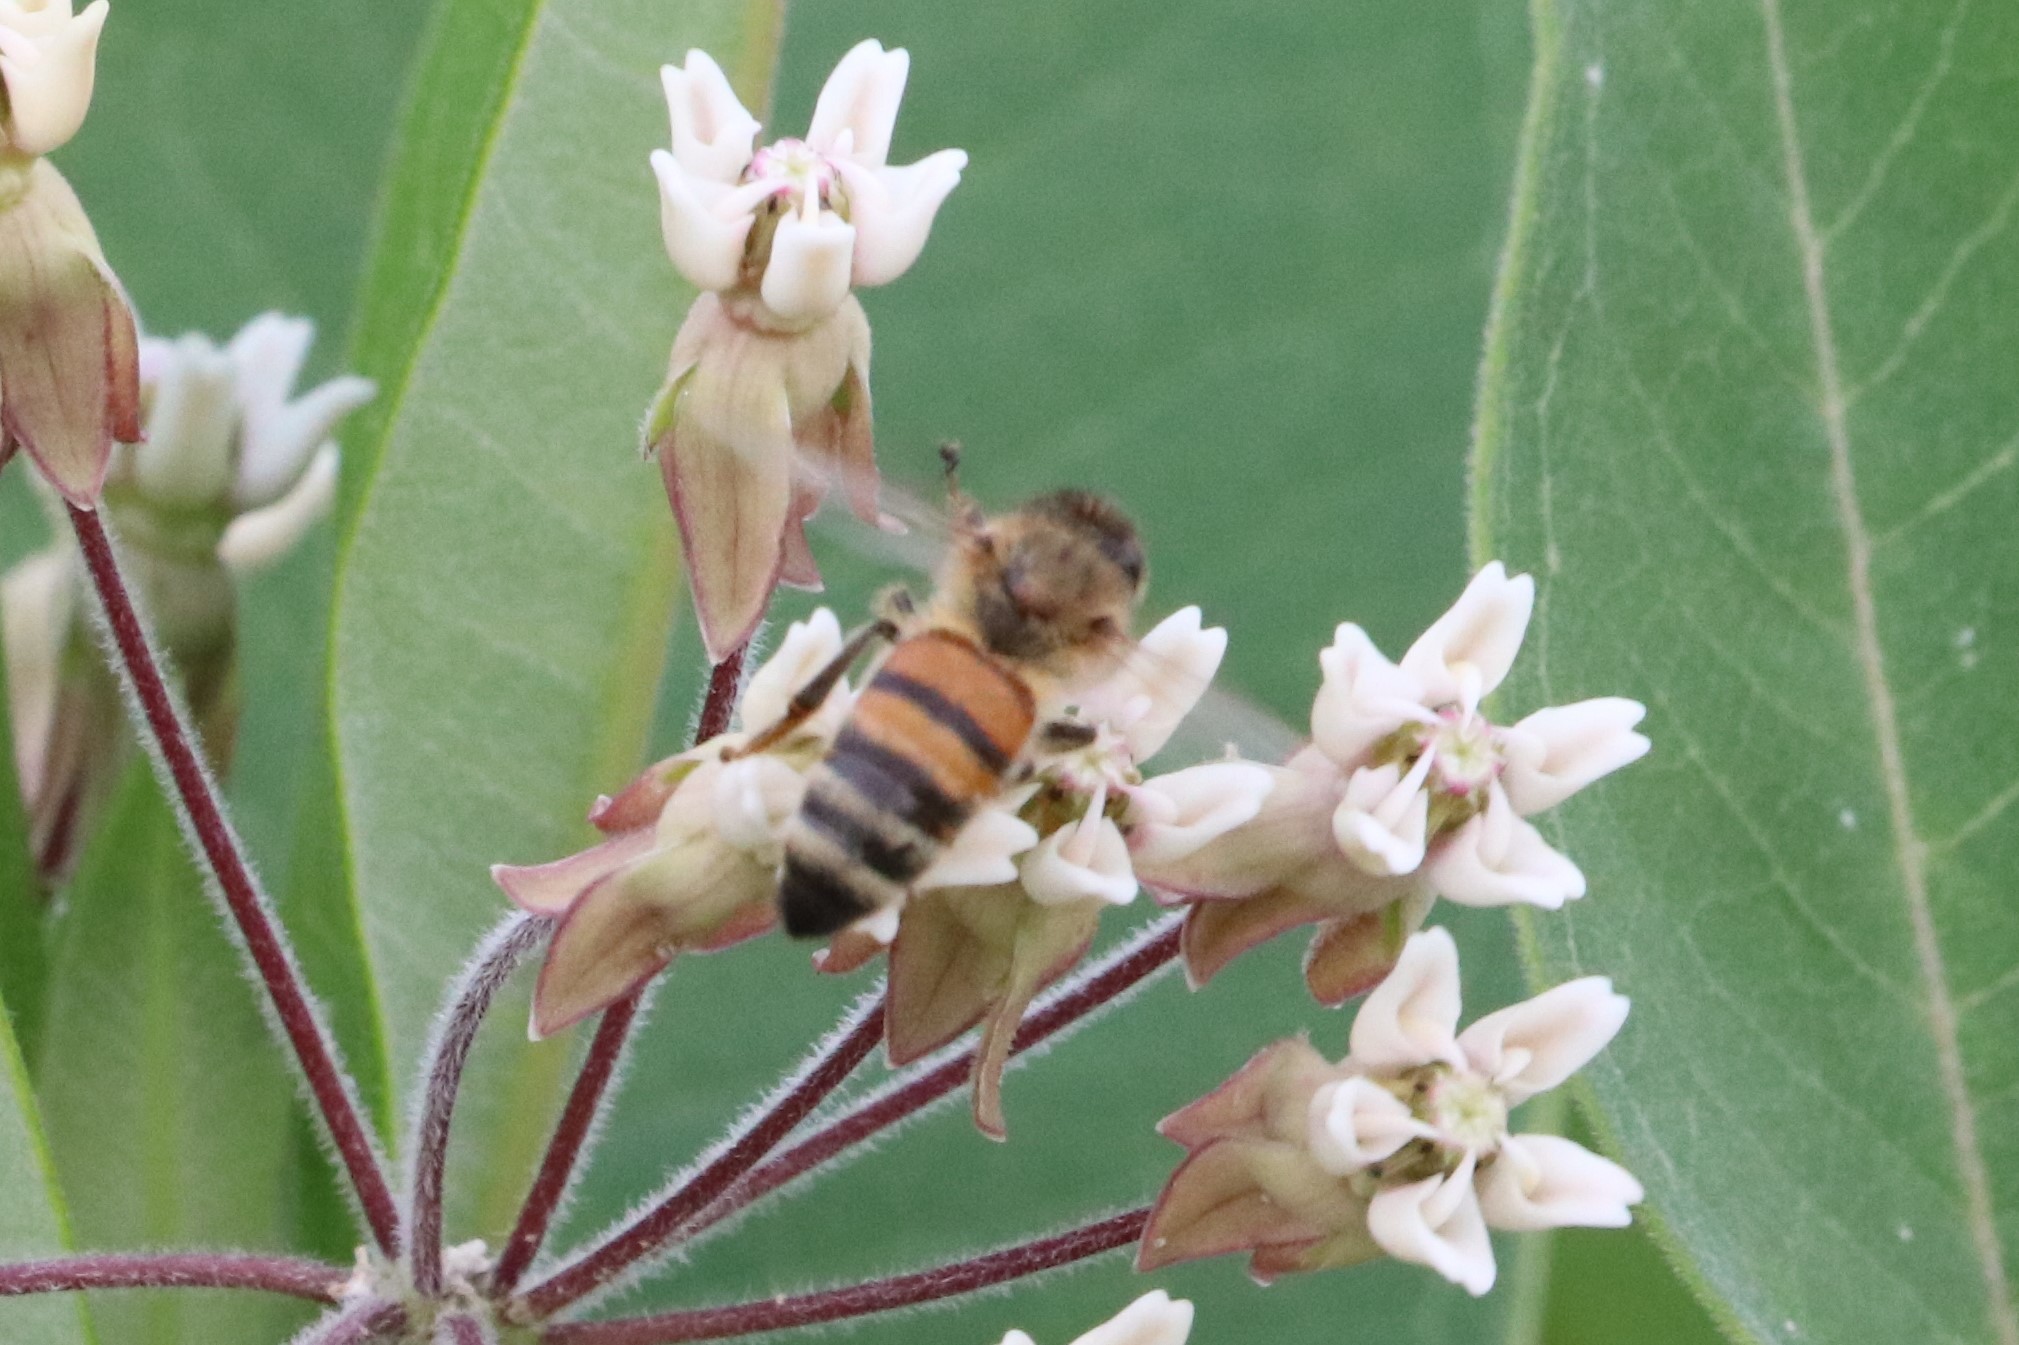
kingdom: Animalia
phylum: Arthropoda
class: Insecta
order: Hymenoptera
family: Apidae
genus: Apis
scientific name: Apis mellifera
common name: Honey bee
